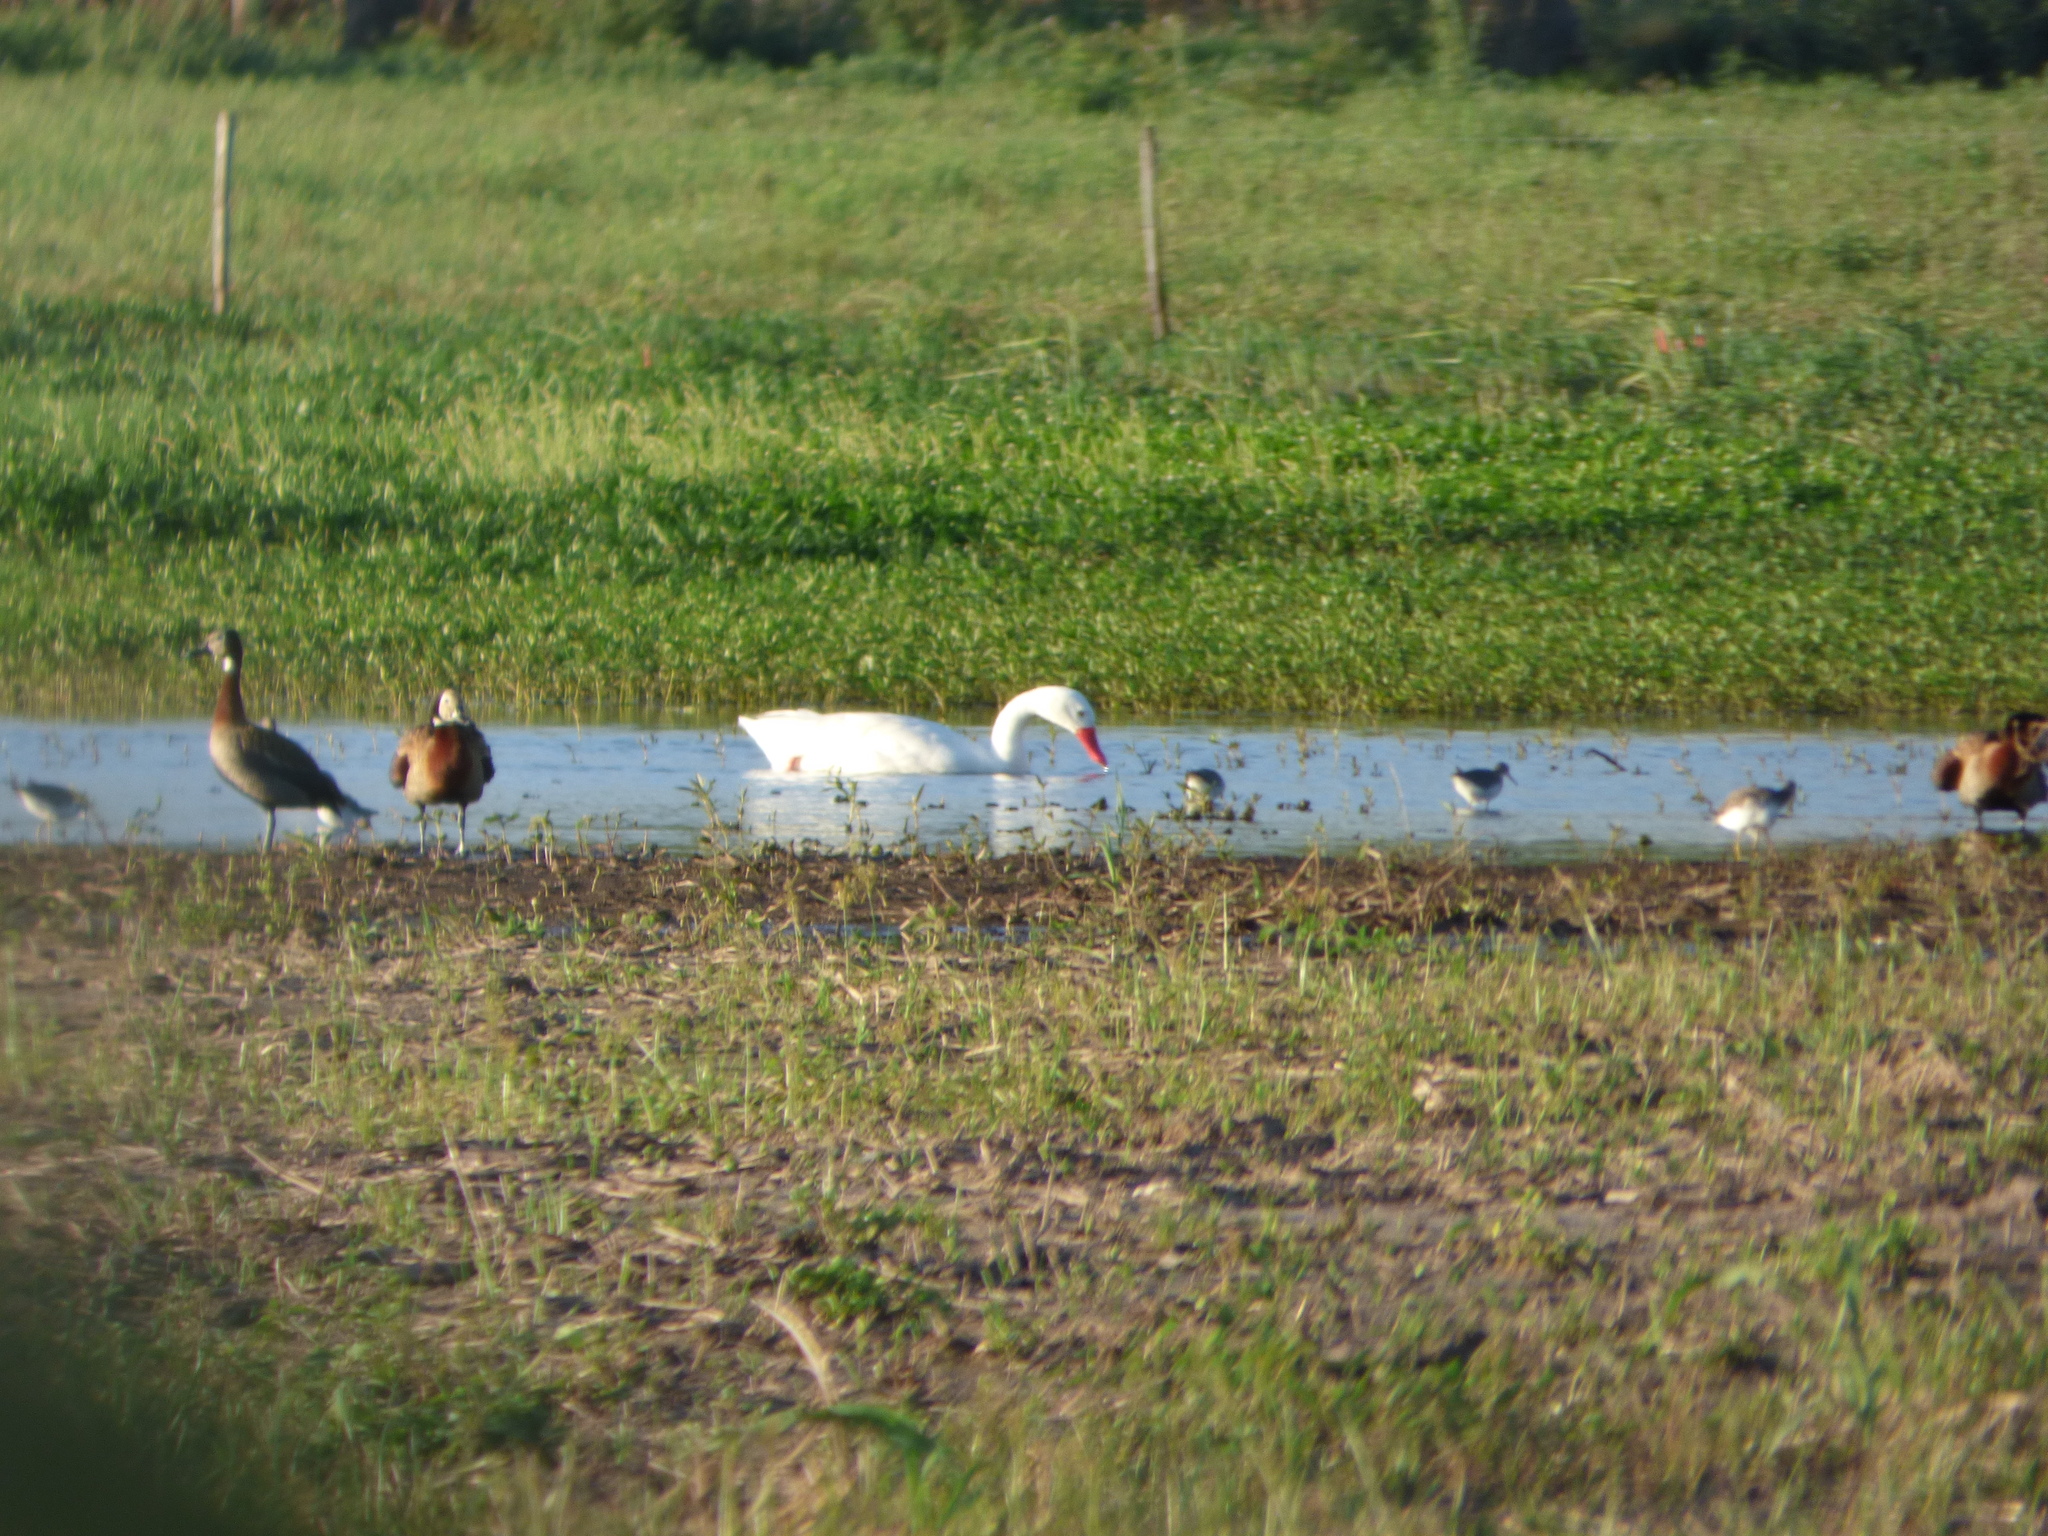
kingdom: Animalia
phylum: Chordata
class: Aves
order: Anseriformes
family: Anatidae
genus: Coscoroba
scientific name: Coscoroba coscoroba
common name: Coscoroba swan
